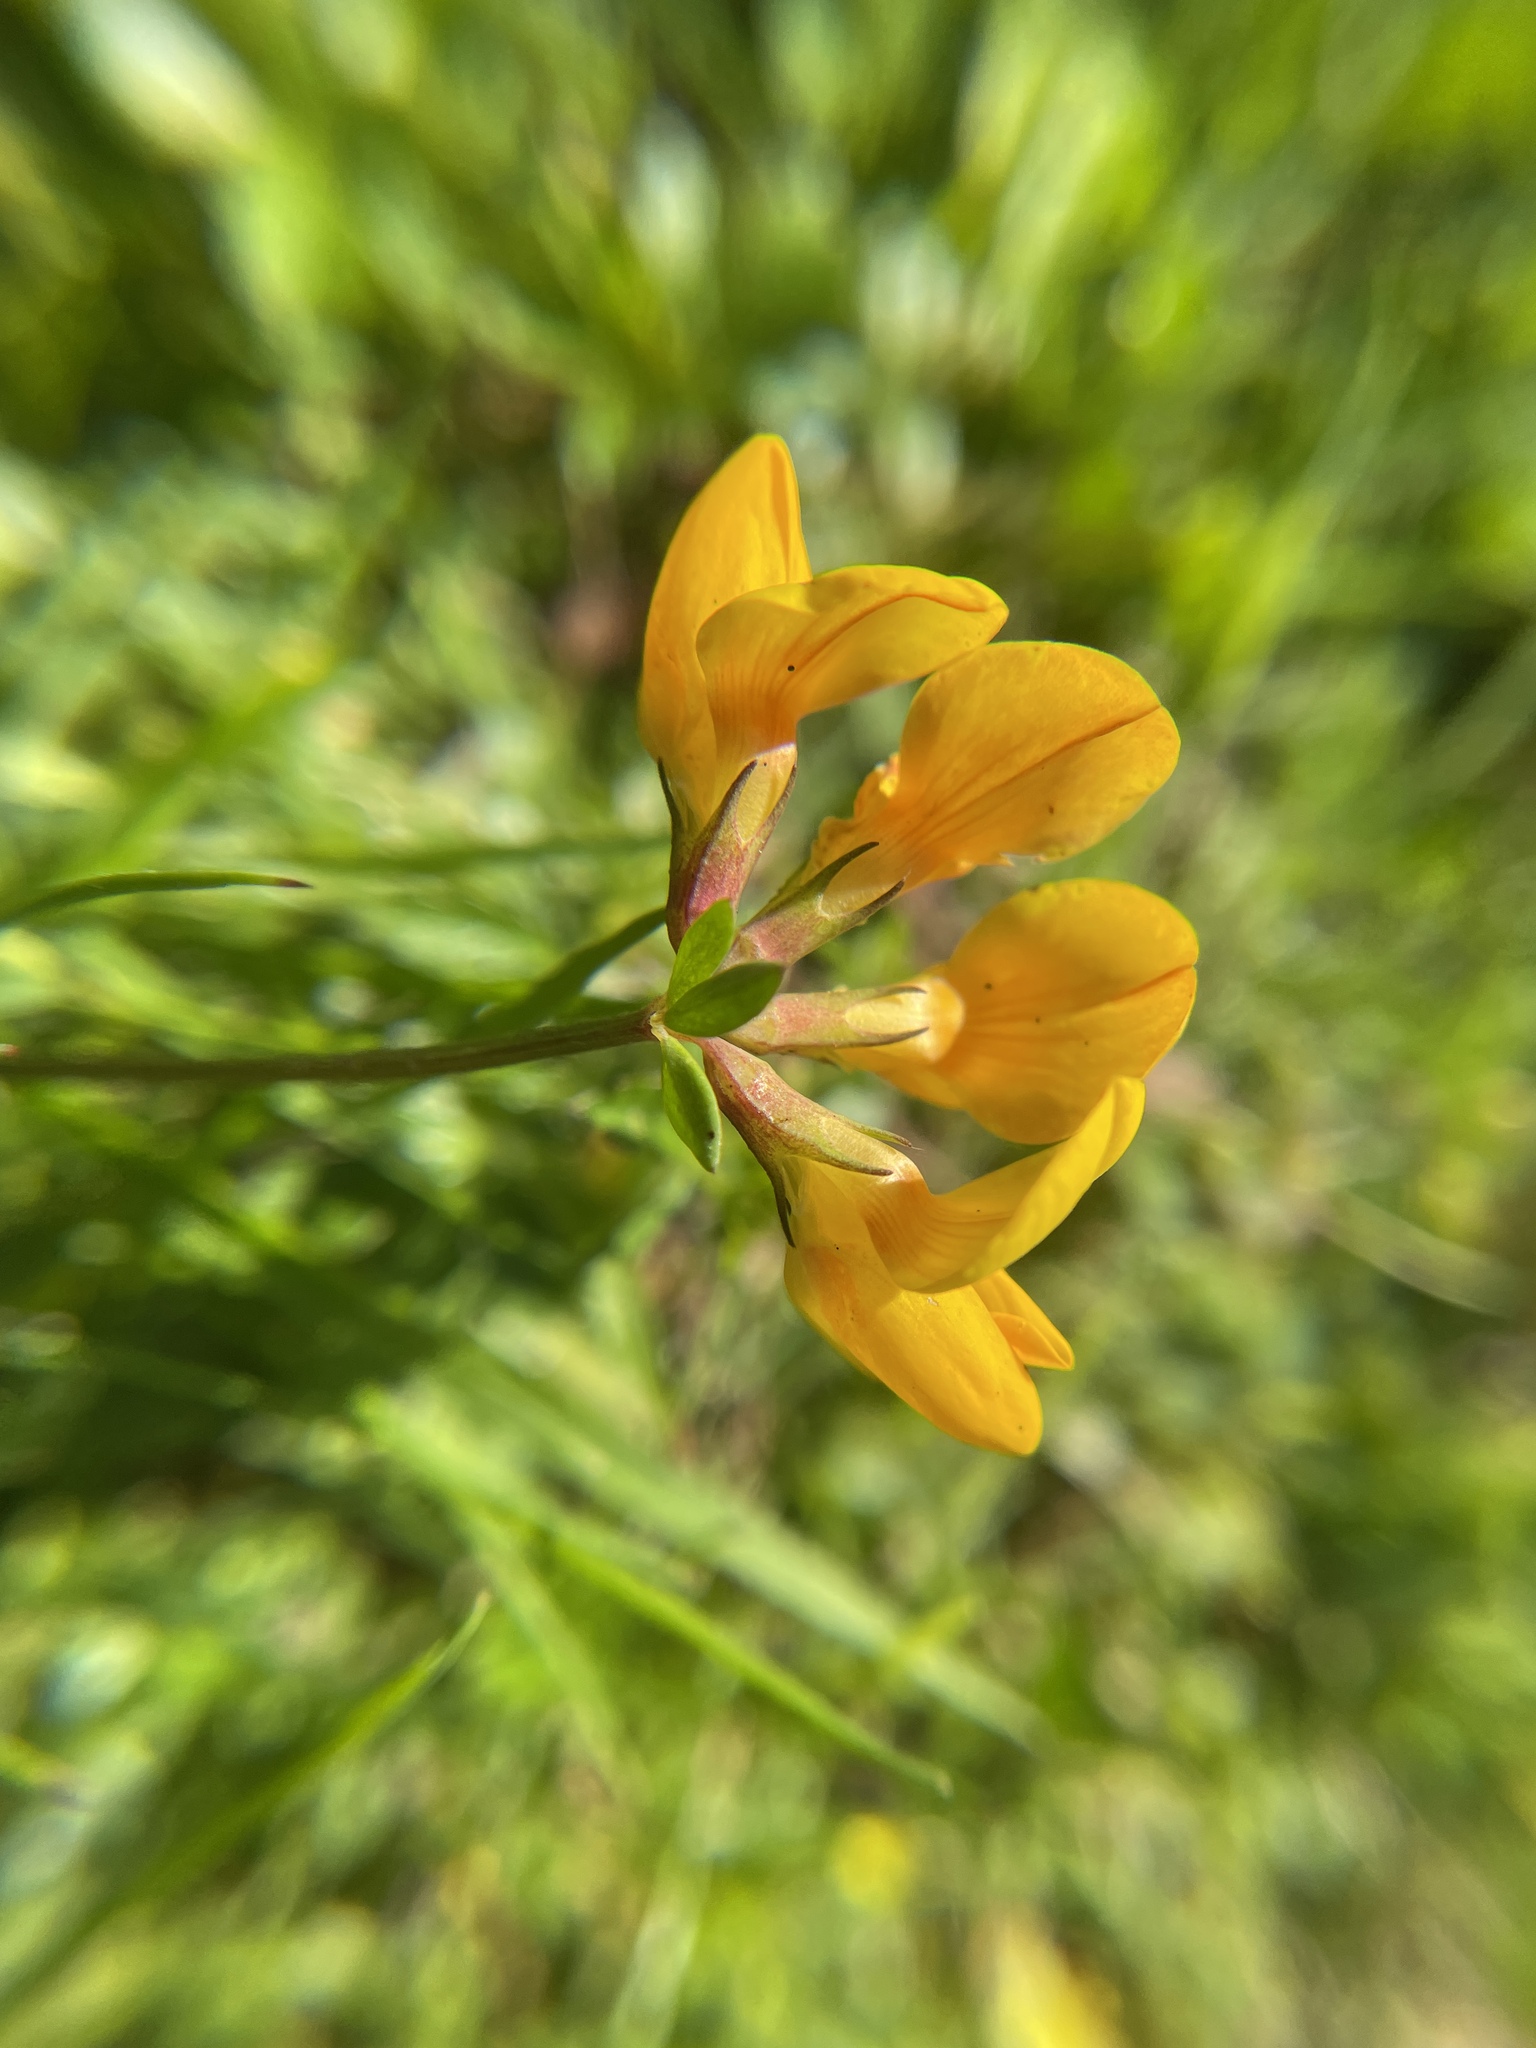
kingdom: Plantae
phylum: Tracheophyta
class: Magnoliopsida
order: Fabales
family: Fabaceae
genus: Lotus
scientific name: Lotus corniculatus
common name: Common bird's-foot-trefoil
